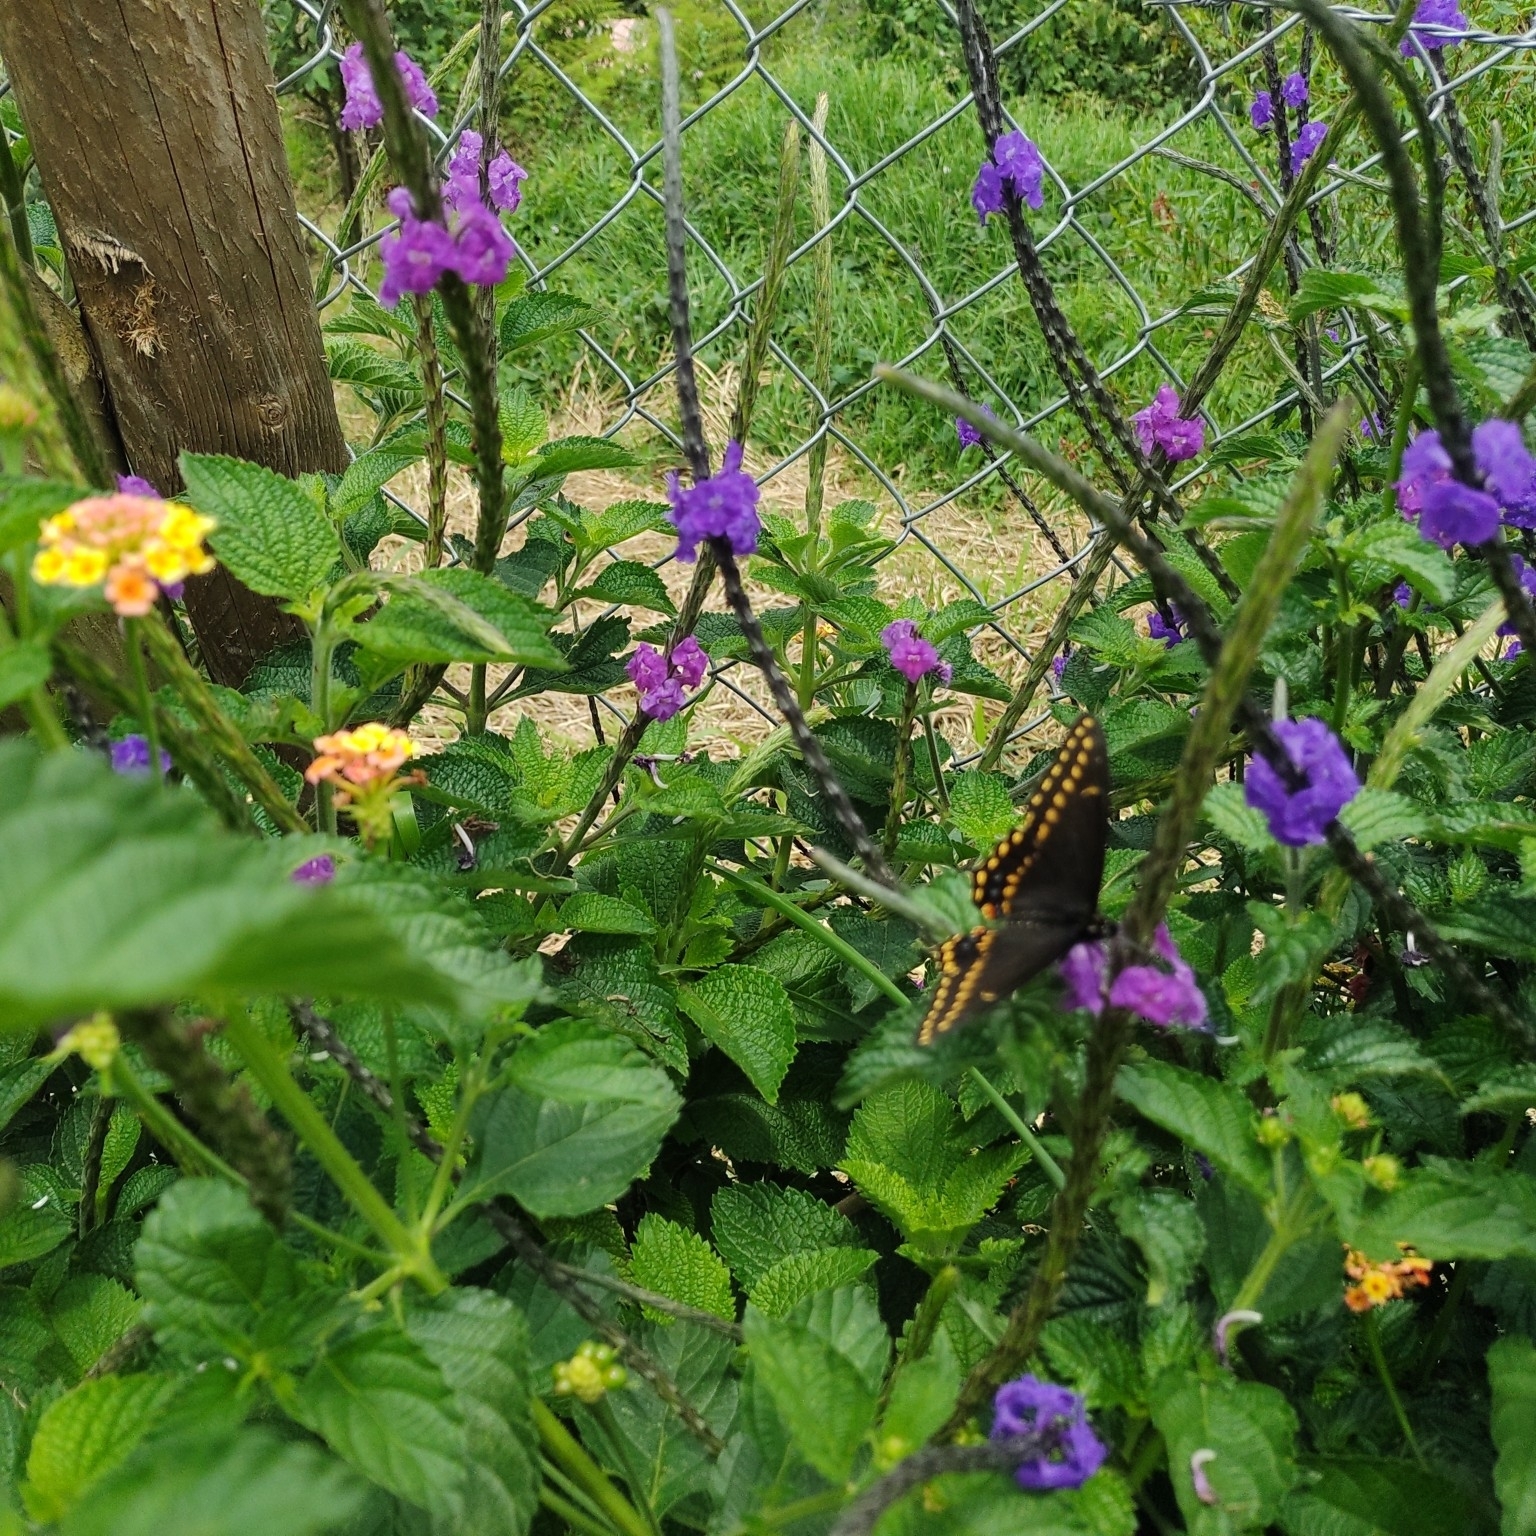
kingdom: Animalia
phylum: Arthropoda
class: Insecta
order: Lepidoptera
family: Papilionidae
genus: Papilio
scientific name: Papilio polyxenes
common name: Black swallowtail
